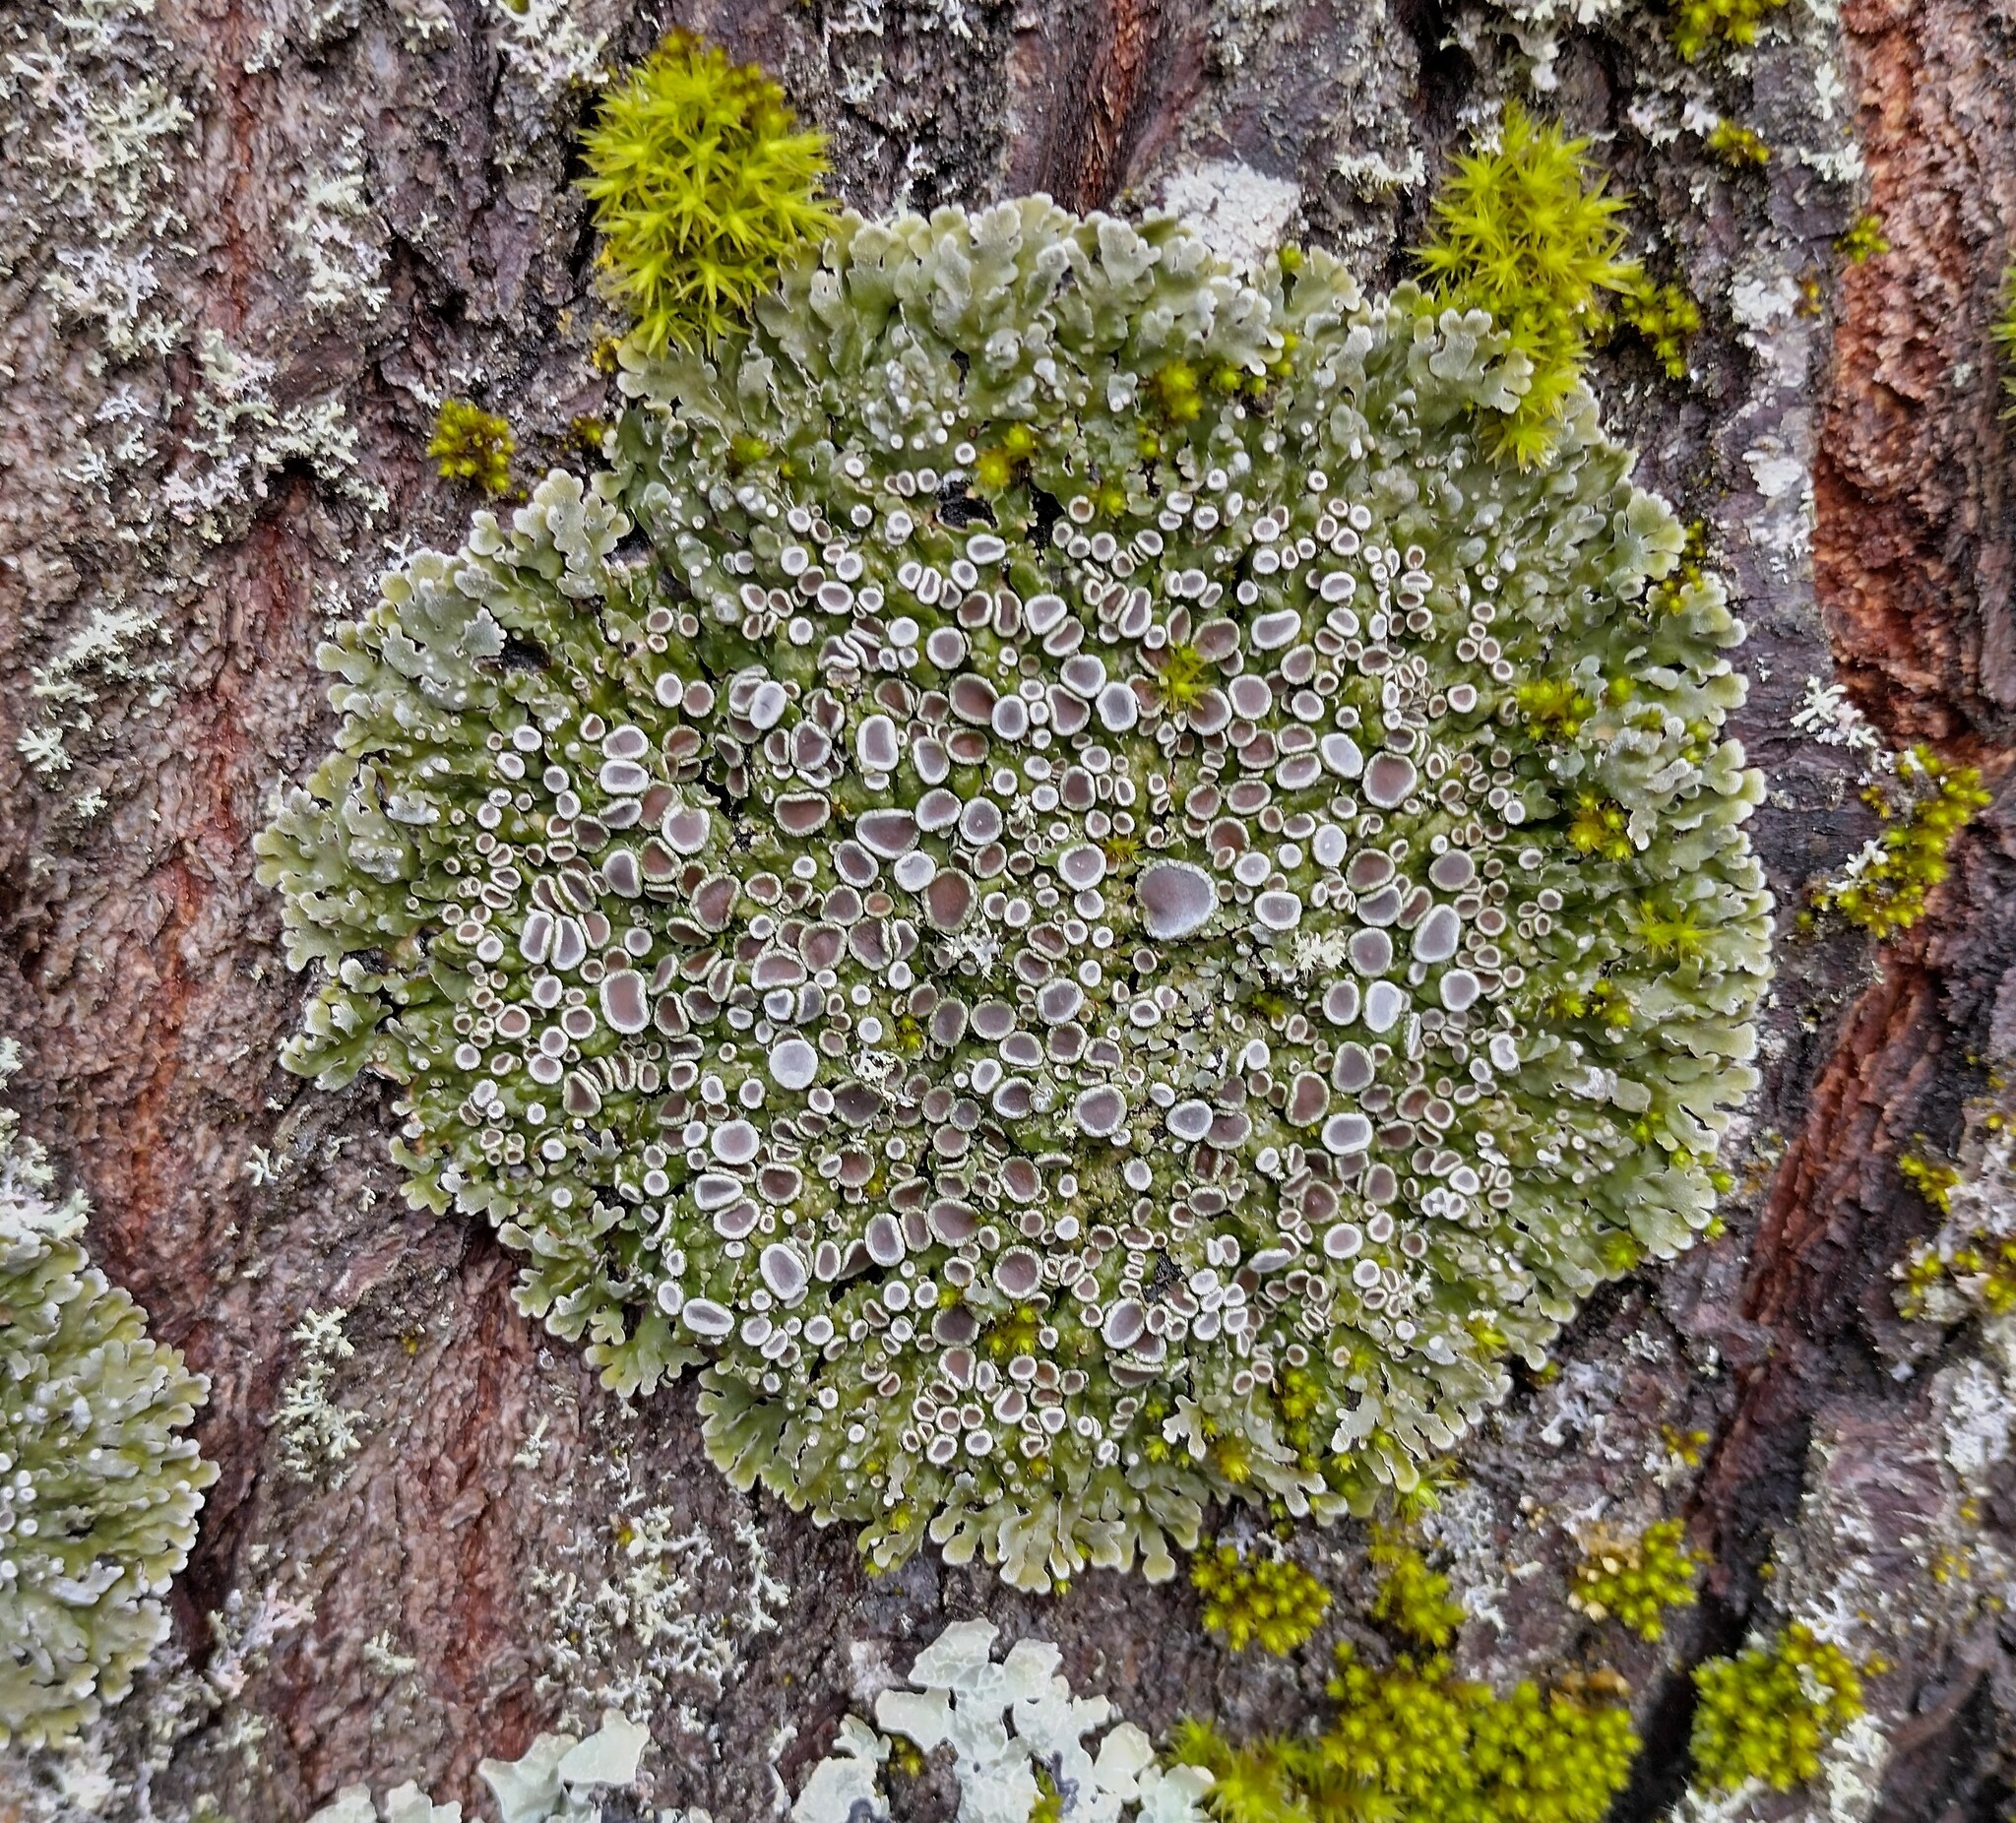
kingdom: Fungi
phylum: Ascomycota
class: Lecanoromycetes
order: Caliciales
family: Physciaceae
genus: Physconia
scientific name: Physconia distorta
